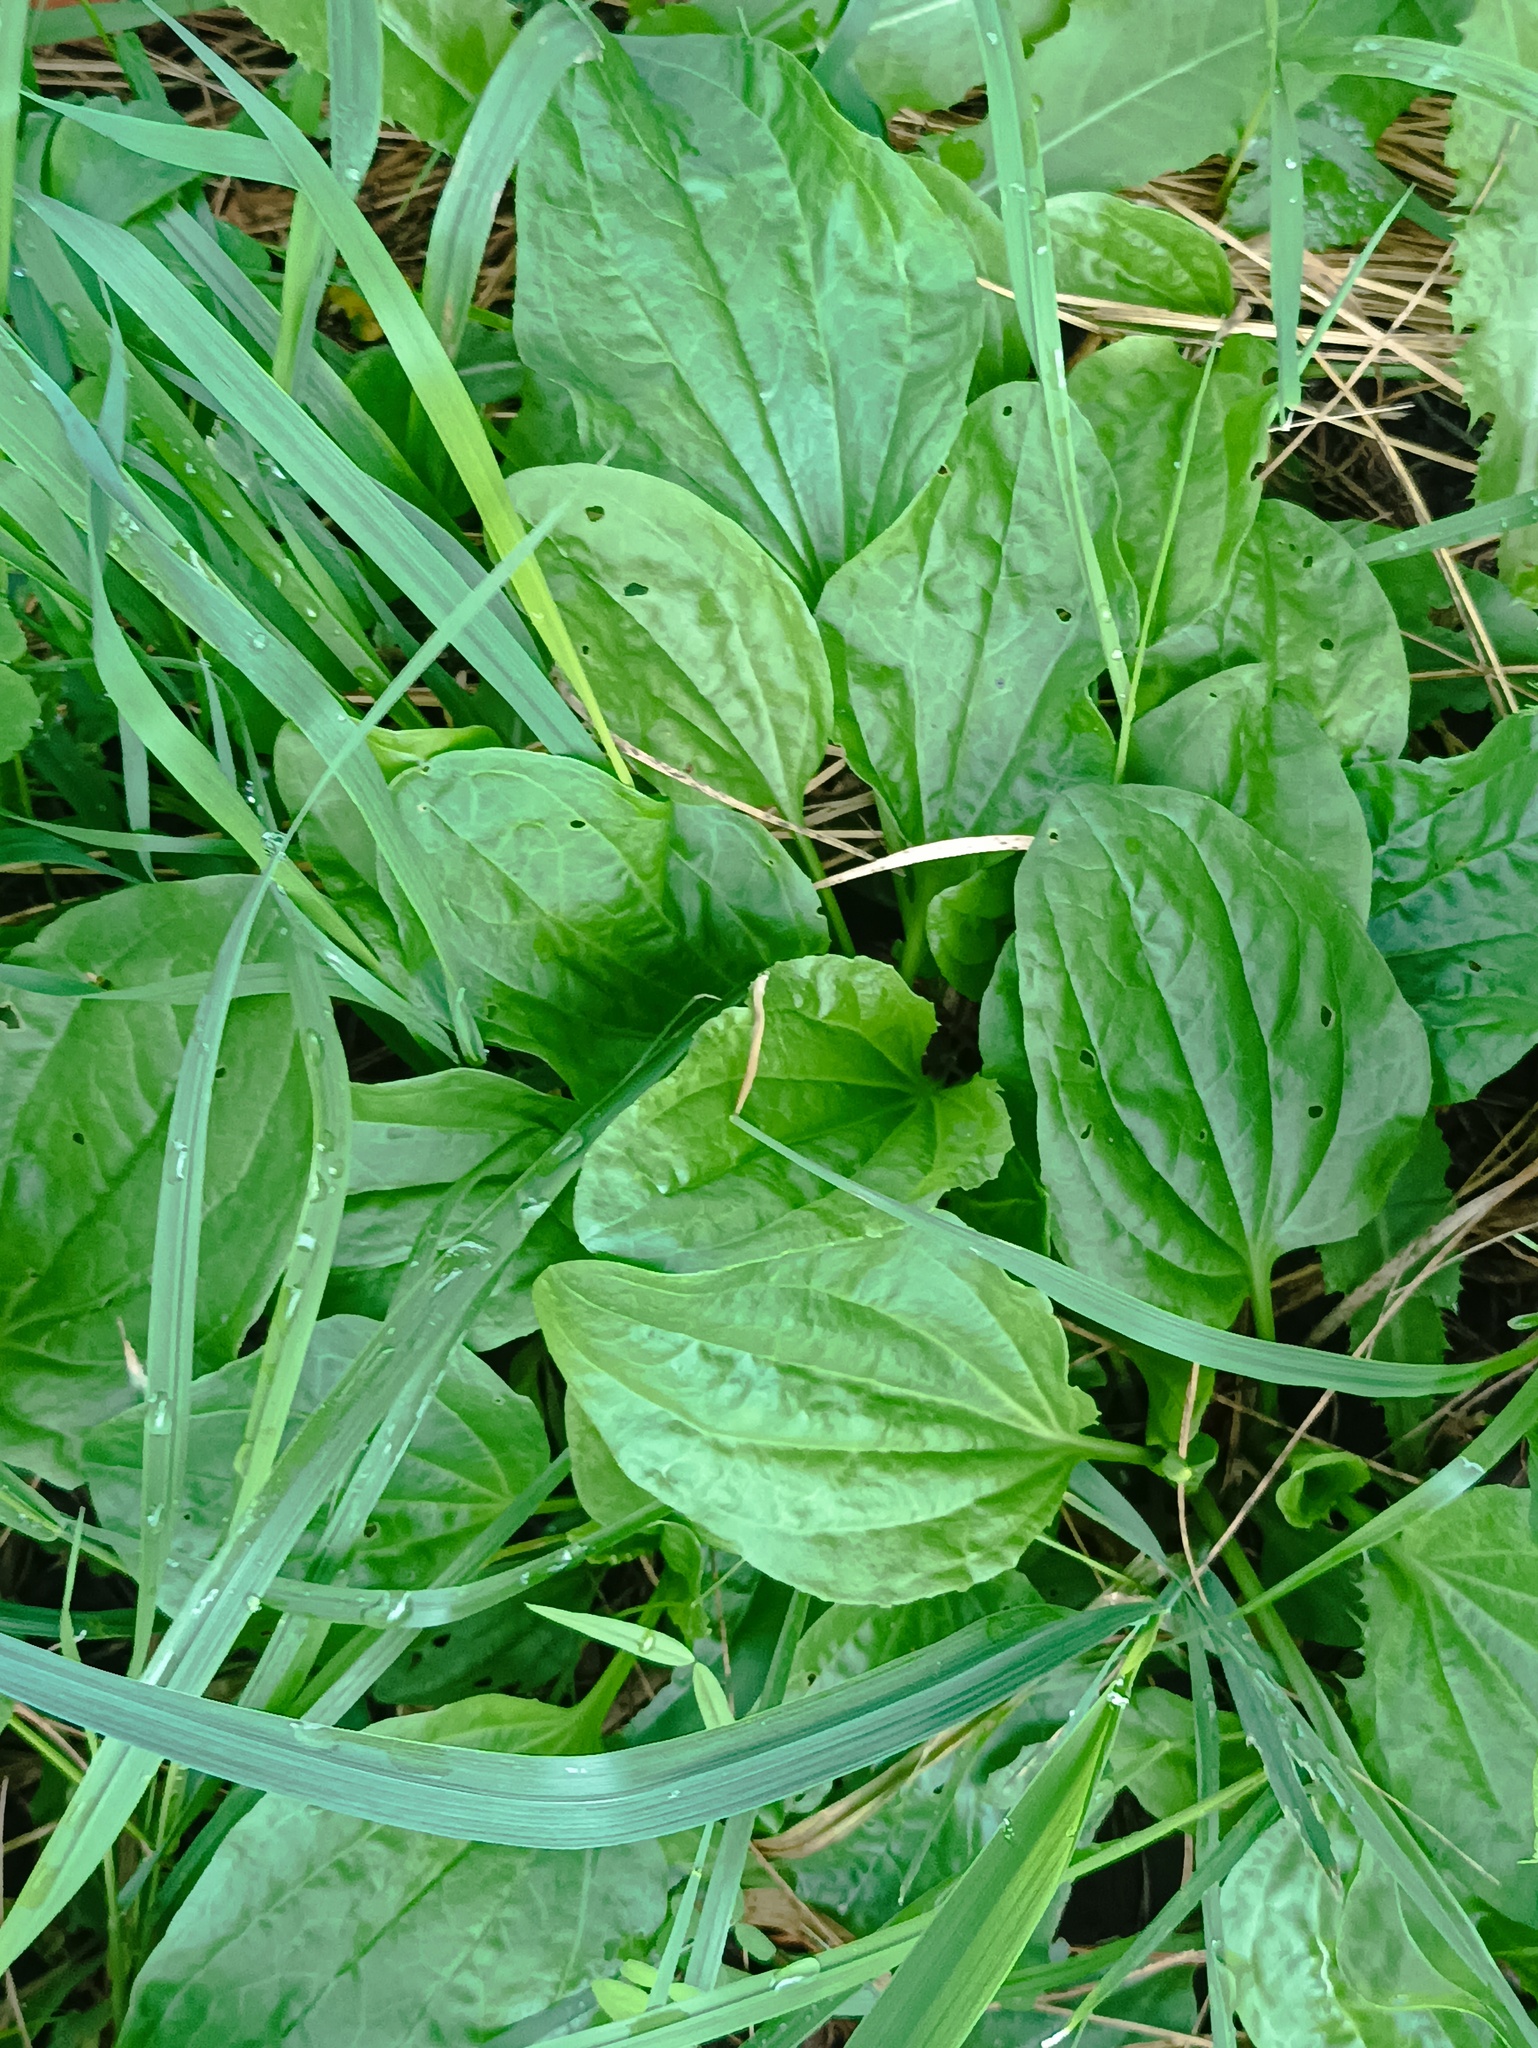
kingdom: Plantae
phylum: Tracheophyta
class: Magnoliopsida
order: Lamiales
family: Plantaginaceae
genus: Plantago
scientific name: Plantago major
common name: Common plantain
